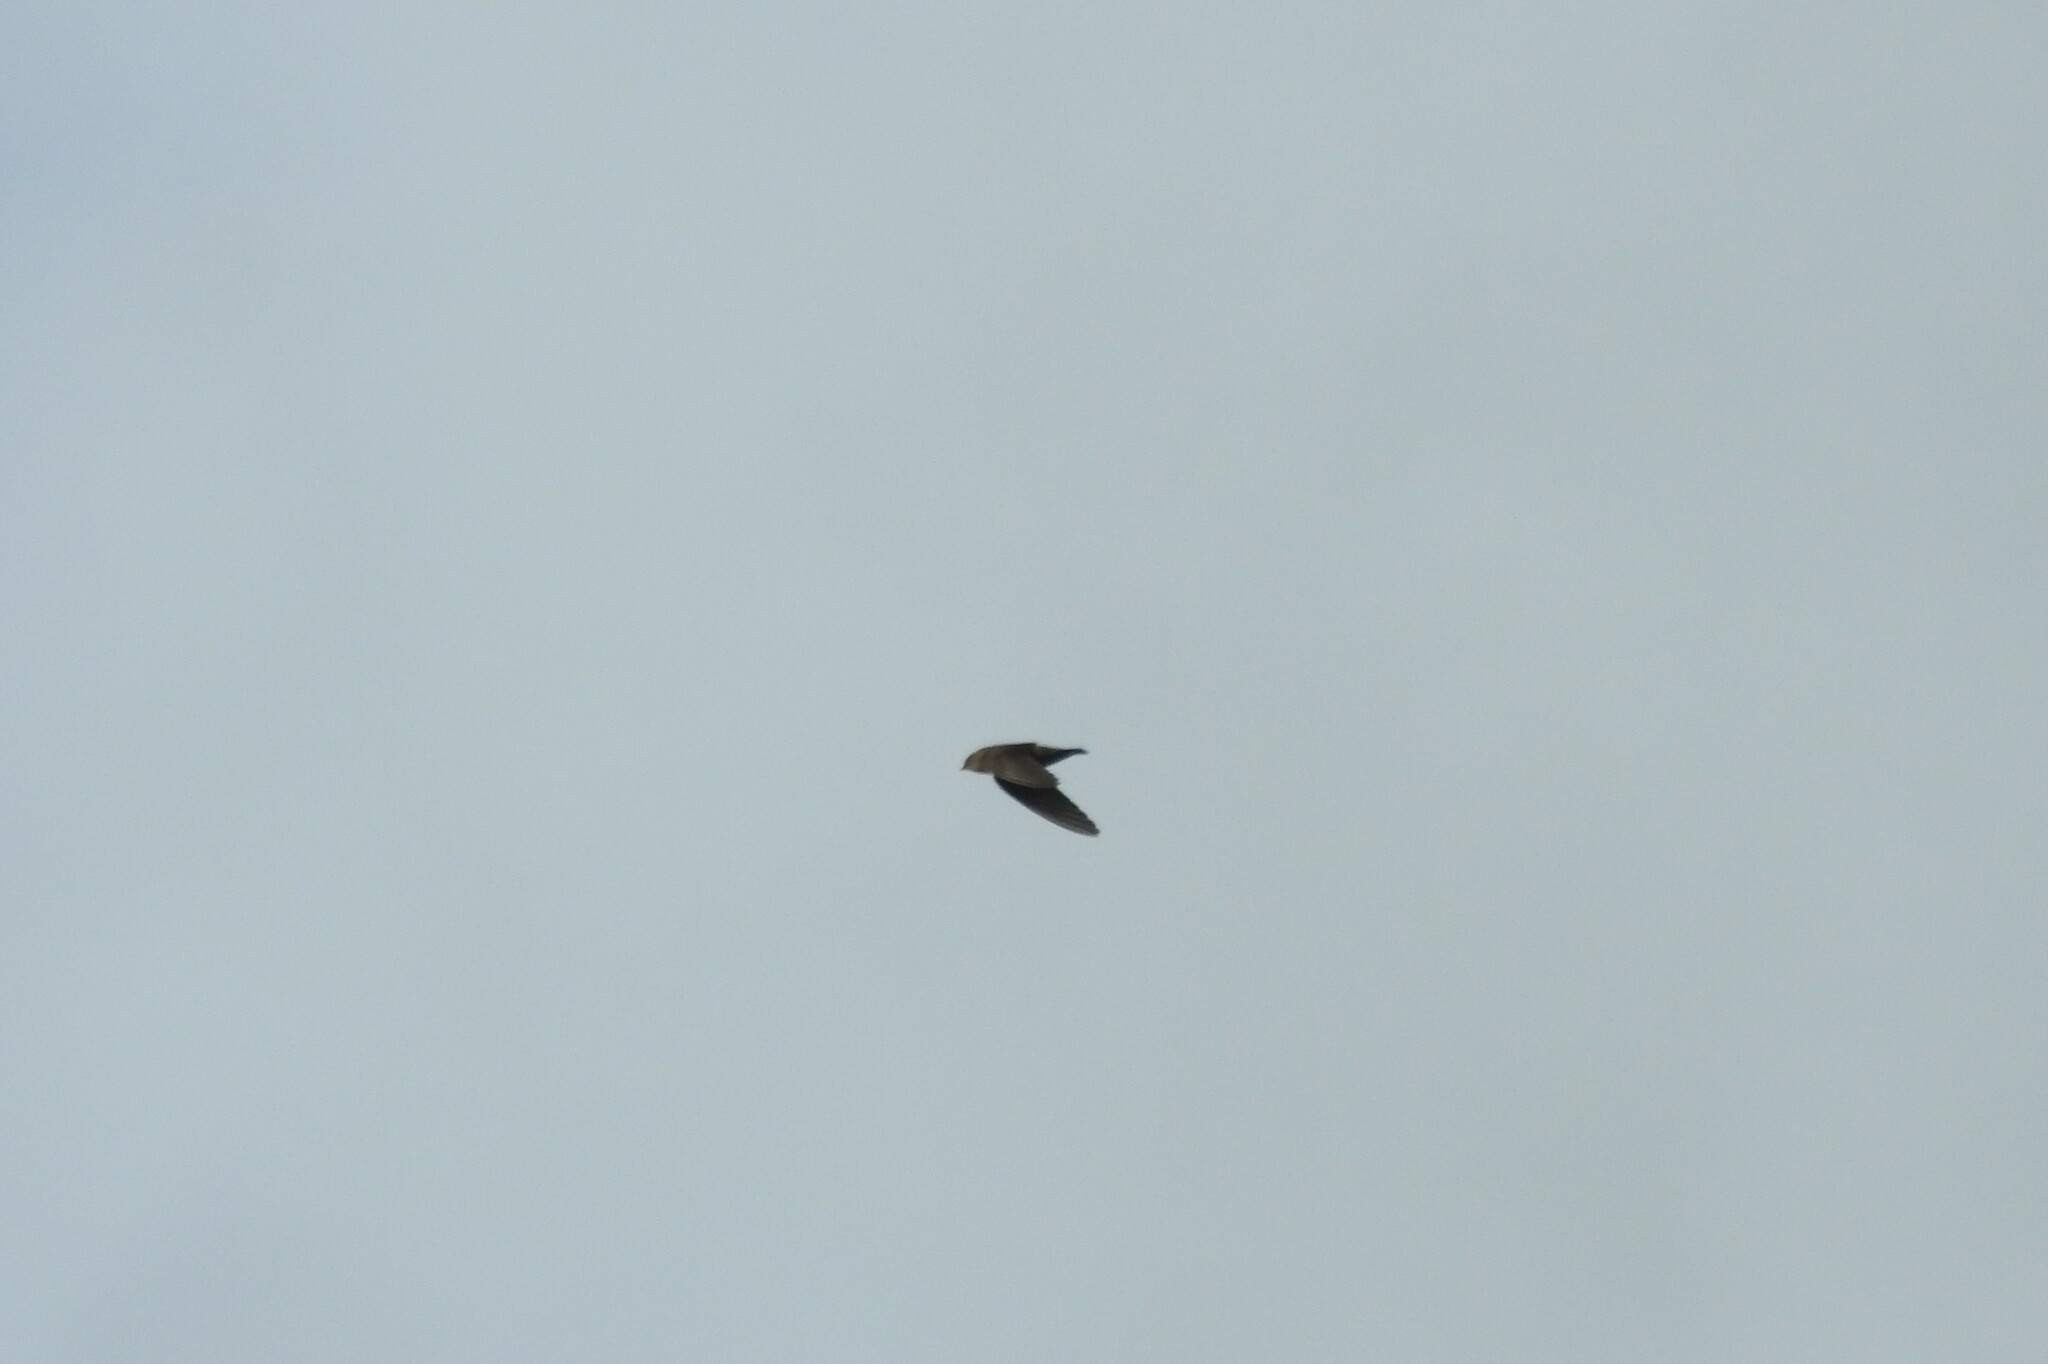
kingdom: Animalia
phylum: Chordata
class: Aves
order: Apodiformes
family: Apodidae
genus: Aerodramus
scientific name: Aerodramus unicolor
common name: Indian swiftlet
